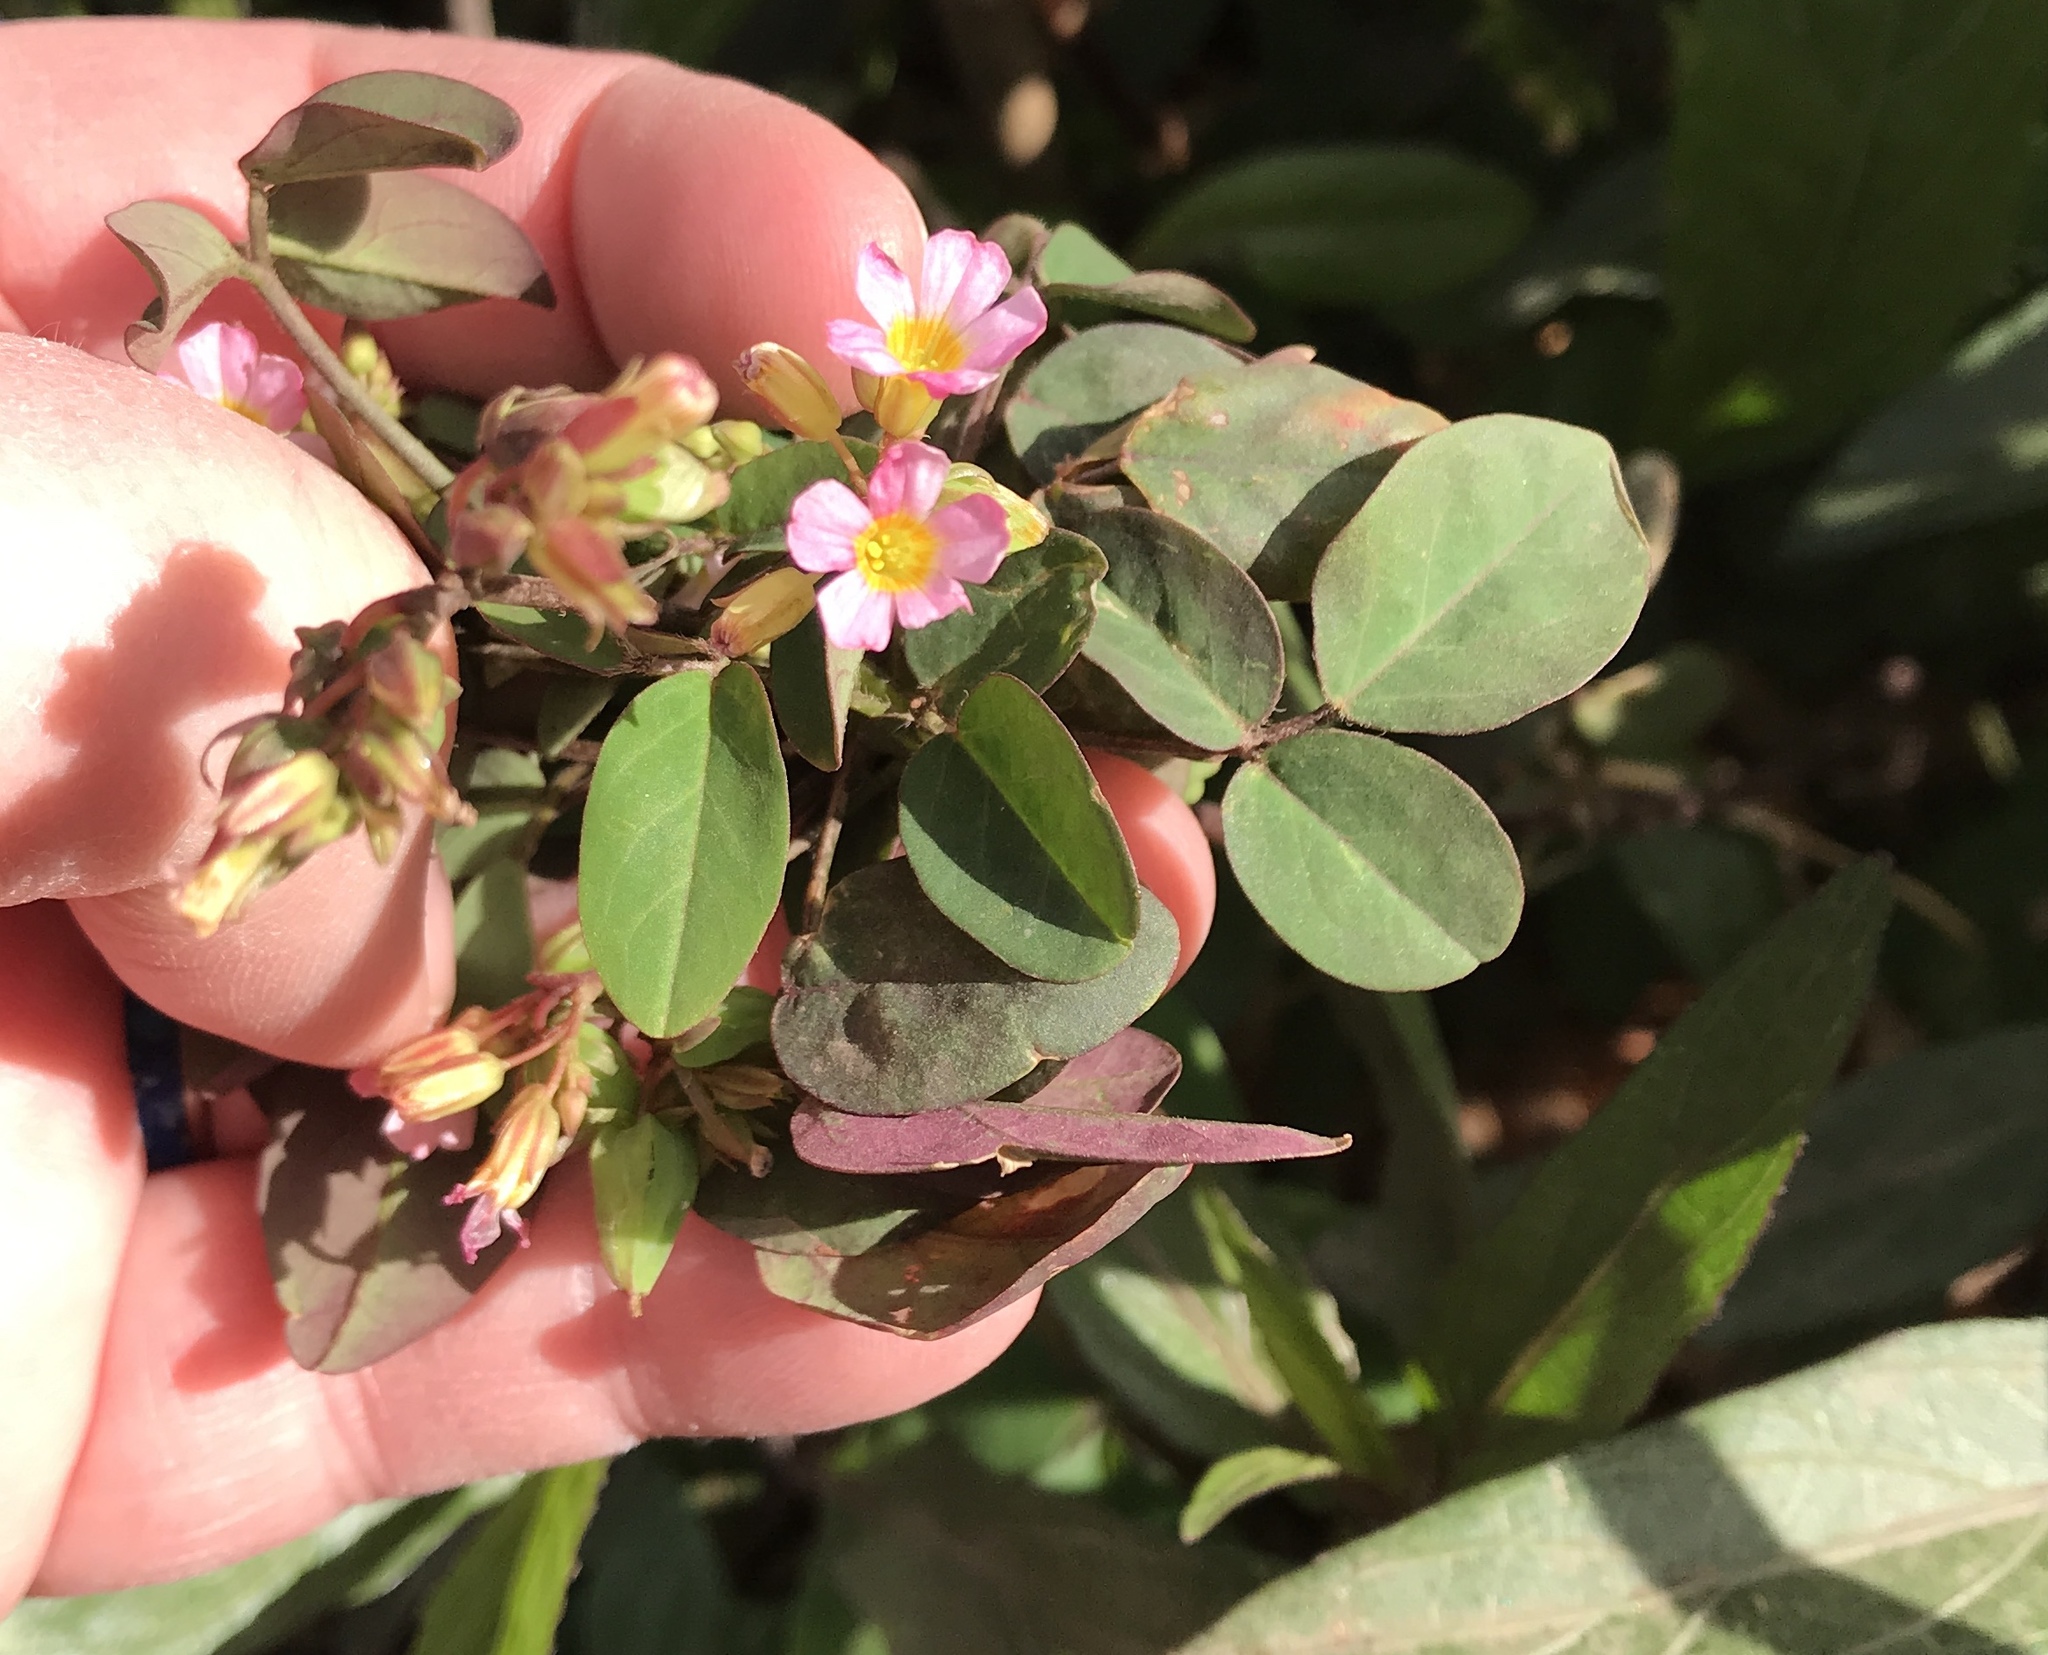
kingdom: Plantae
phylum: Tracheophyta
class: Magnoliopsida
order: Oxalidales
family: Oxalidaceae
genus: Oxalis
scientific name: Oxalis barrelieri
